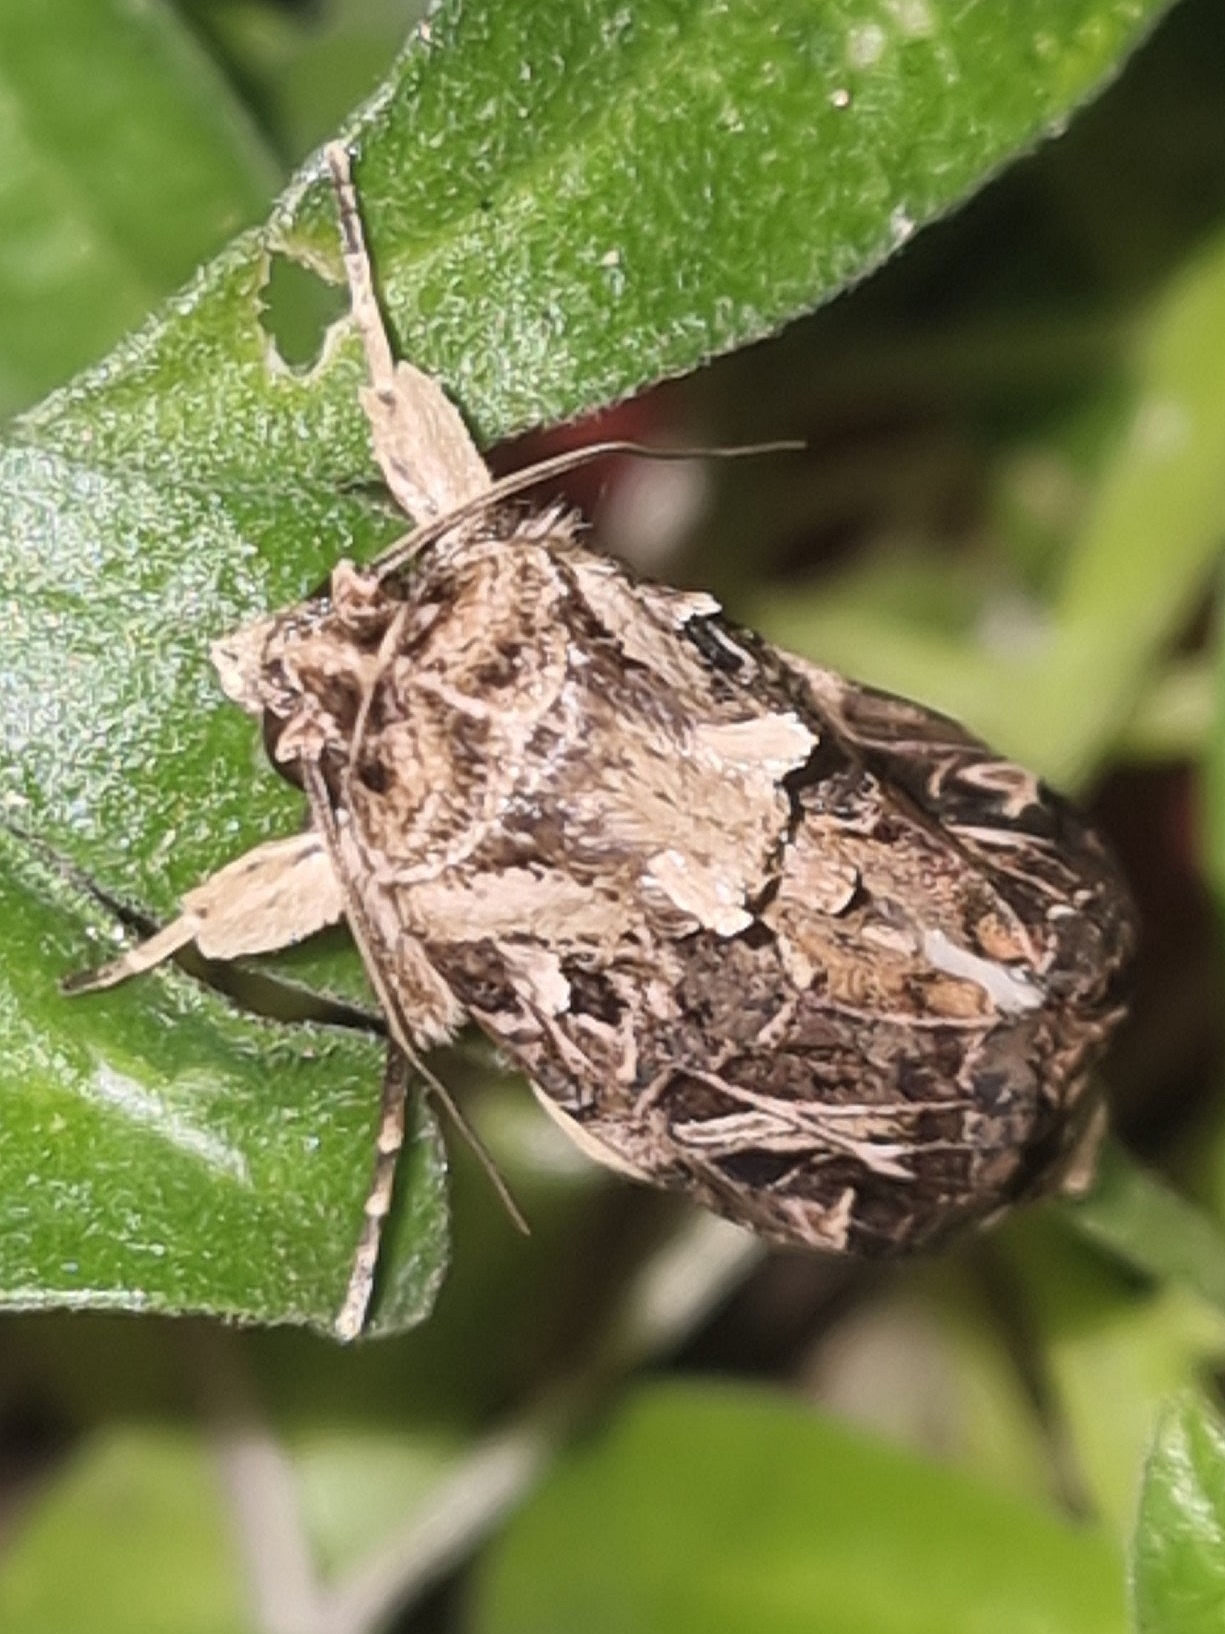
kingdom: Animalia
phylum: Arthropoda
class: Insecta
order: Lepidoptera
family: Noctuidae
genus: Spodoptera
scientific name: Spodoptera littoralis
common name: Egyptian cotton leafworm
